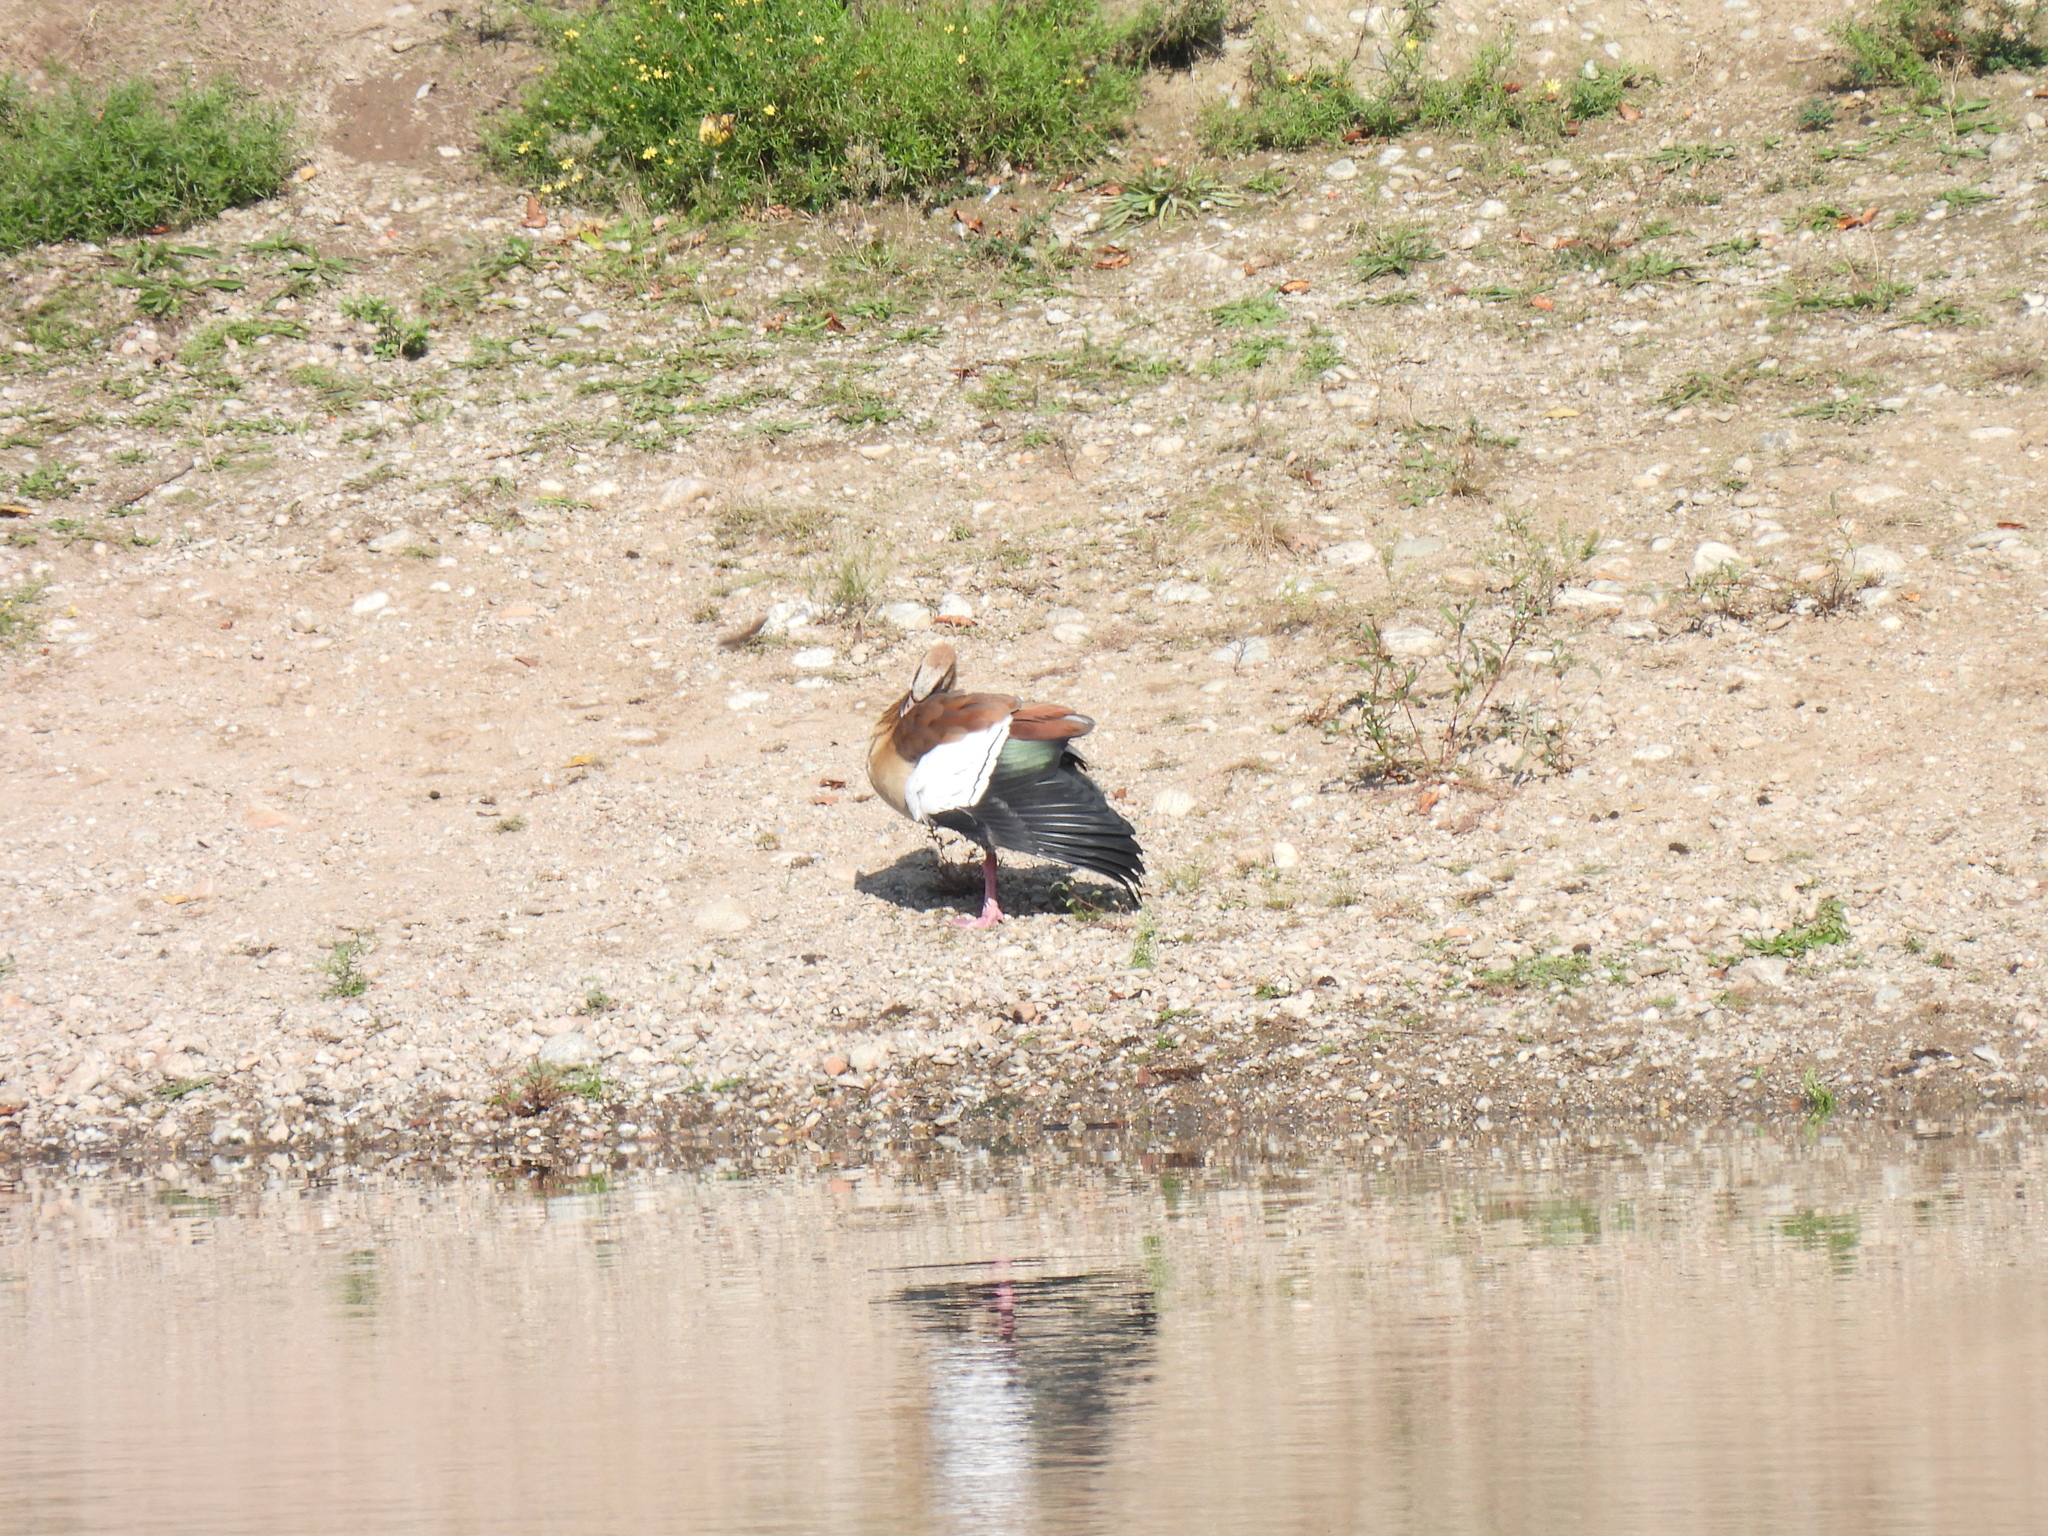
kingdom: Animalia
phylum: Chordata
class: Aves
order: Anseriformes
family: Anatidae
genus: Alopochen
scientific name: Alopochen aegyptiaca
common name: Egyptian goose
